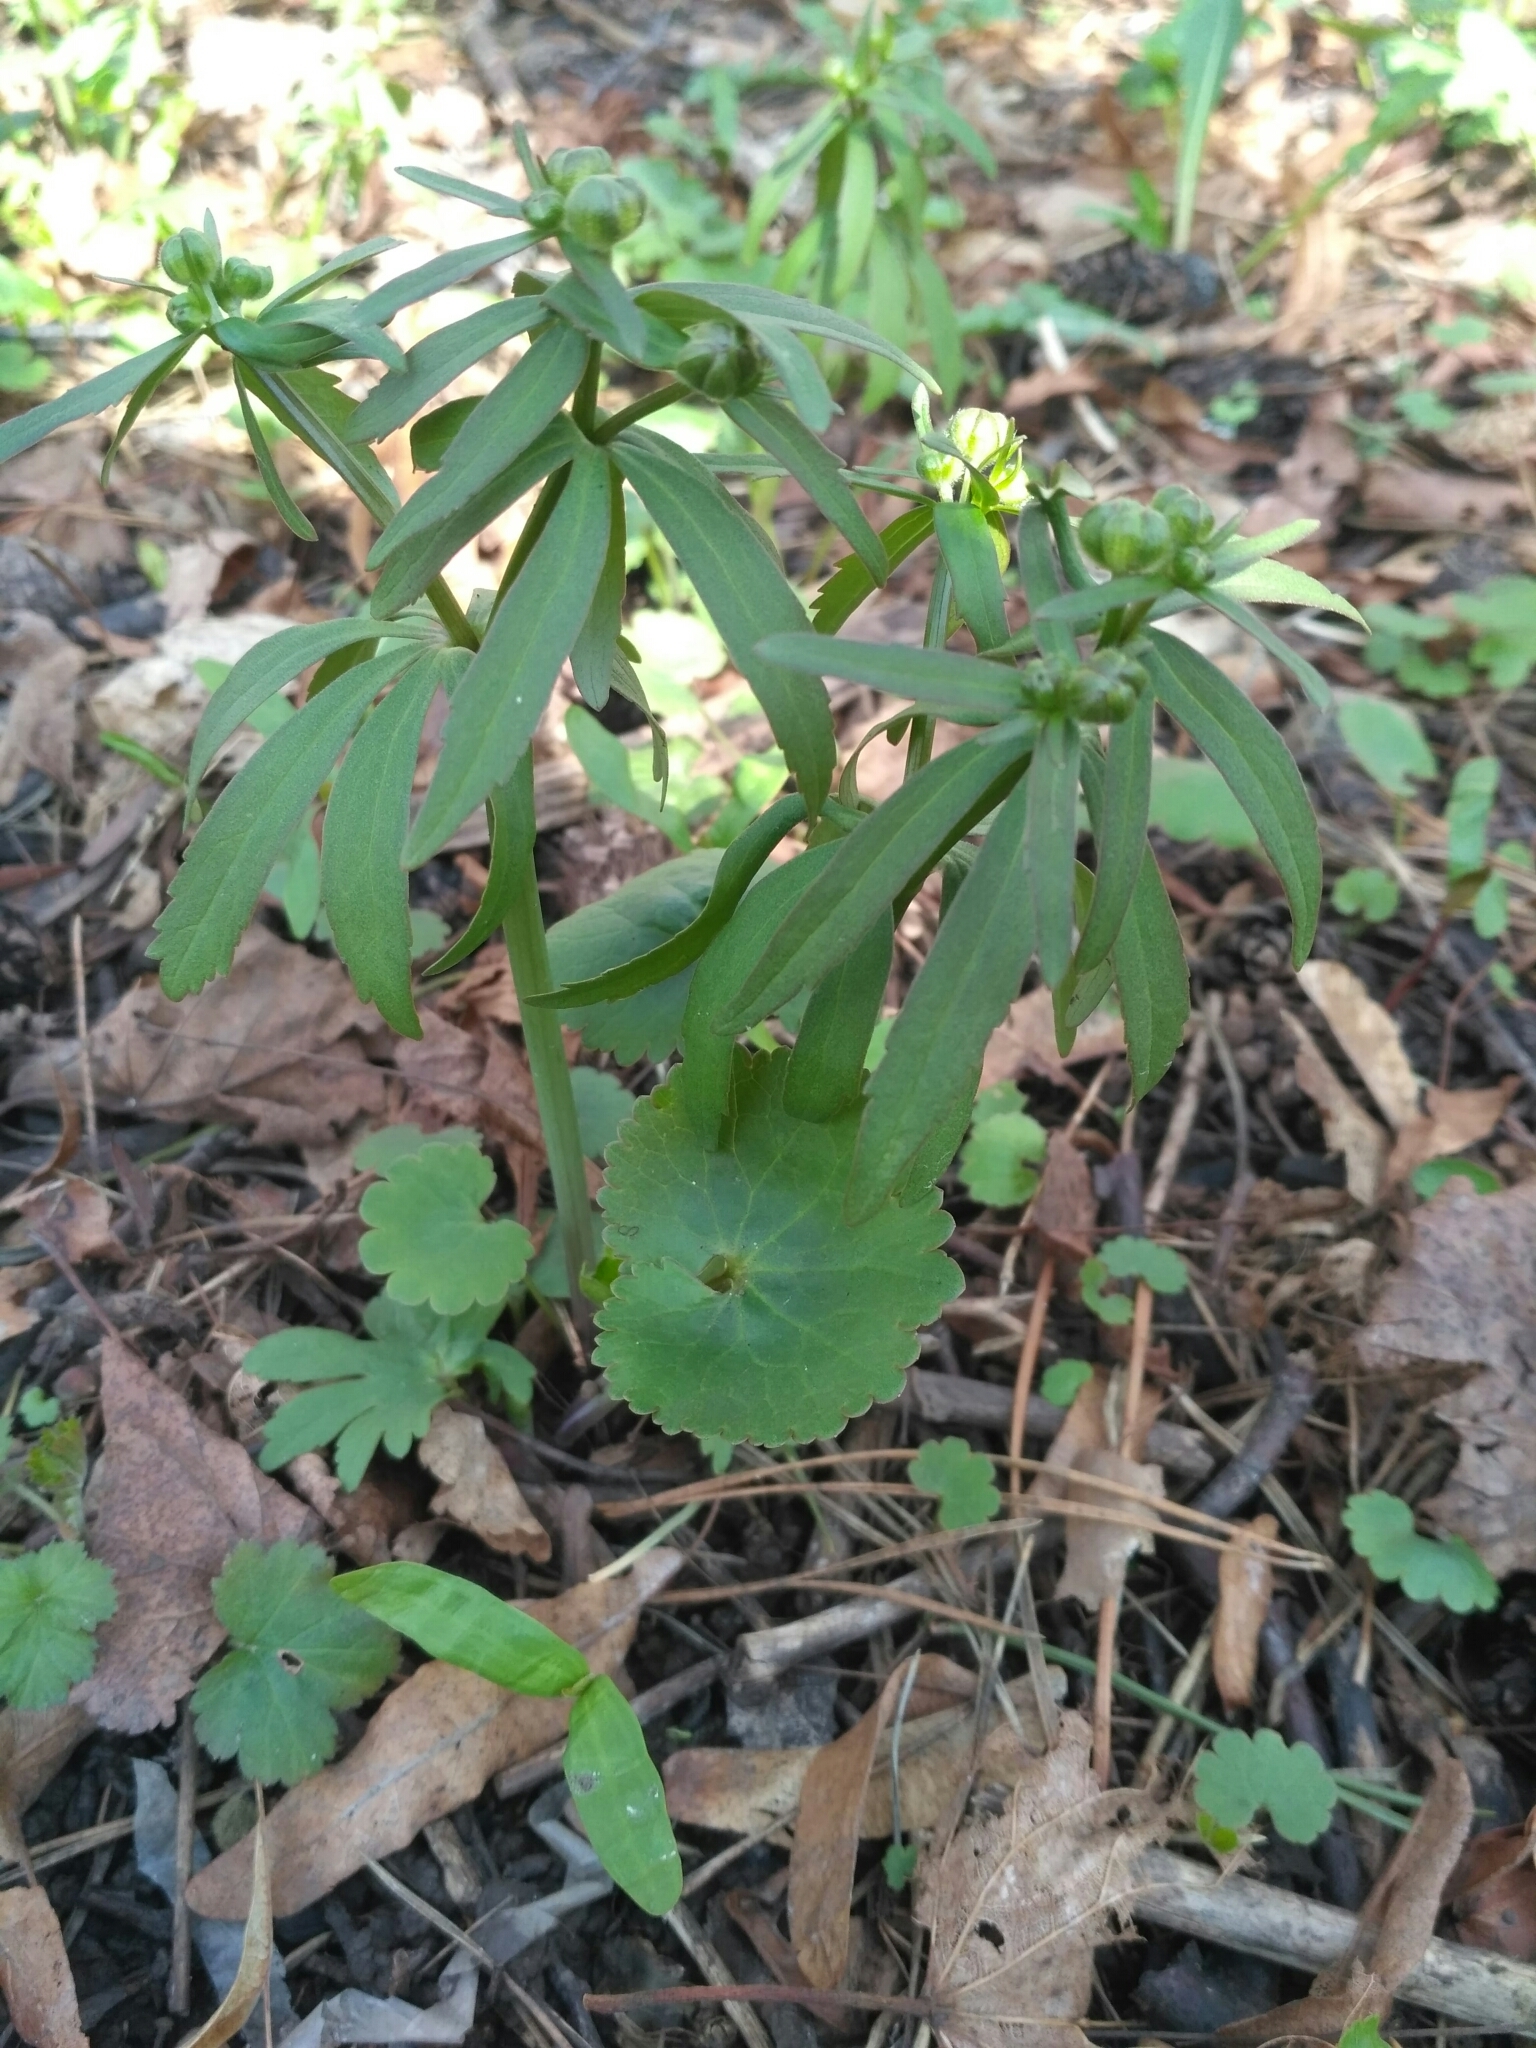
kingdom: Plantae
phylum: Tracheophyta
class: Magnoliopsida
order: Ranunculales
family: Ranunculaceae
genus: Ranunculus
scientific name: Ranunculus cassubicus
